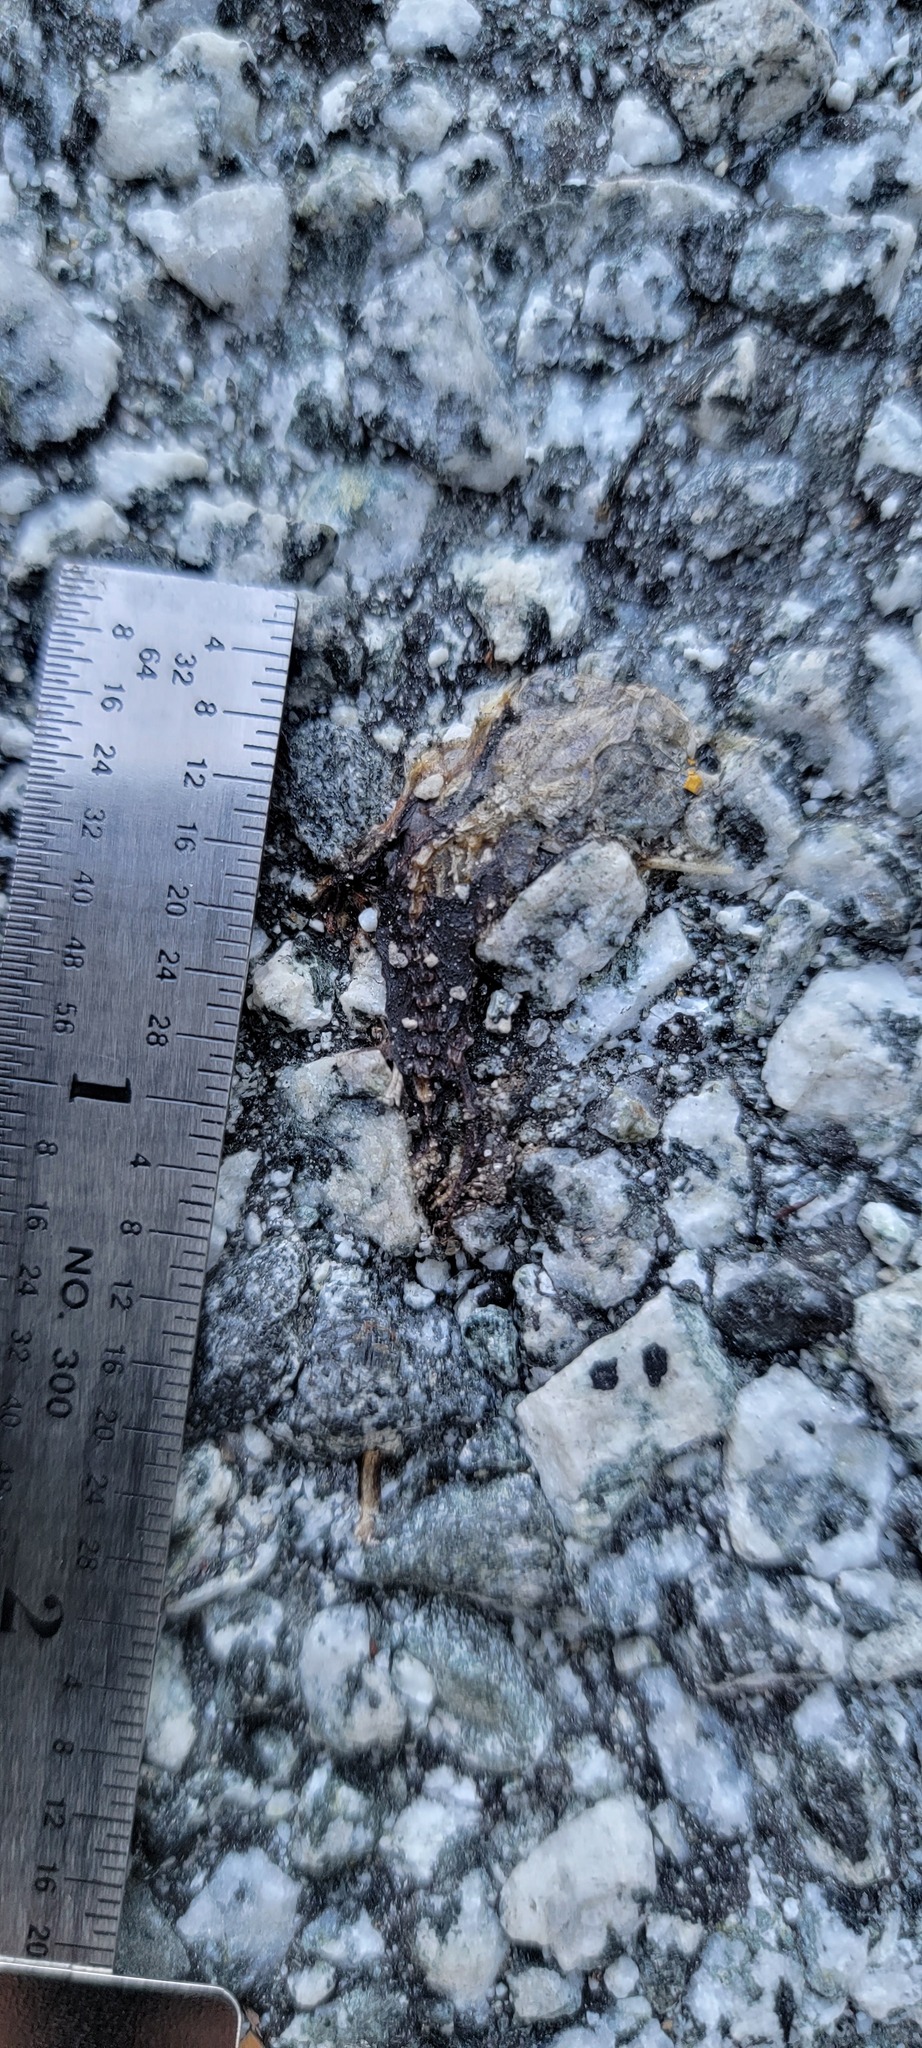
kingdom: Animalia
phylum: Chordata
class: Amphibia
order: Caudata
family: Salamandridae
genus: Taricha
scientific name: Taricha
